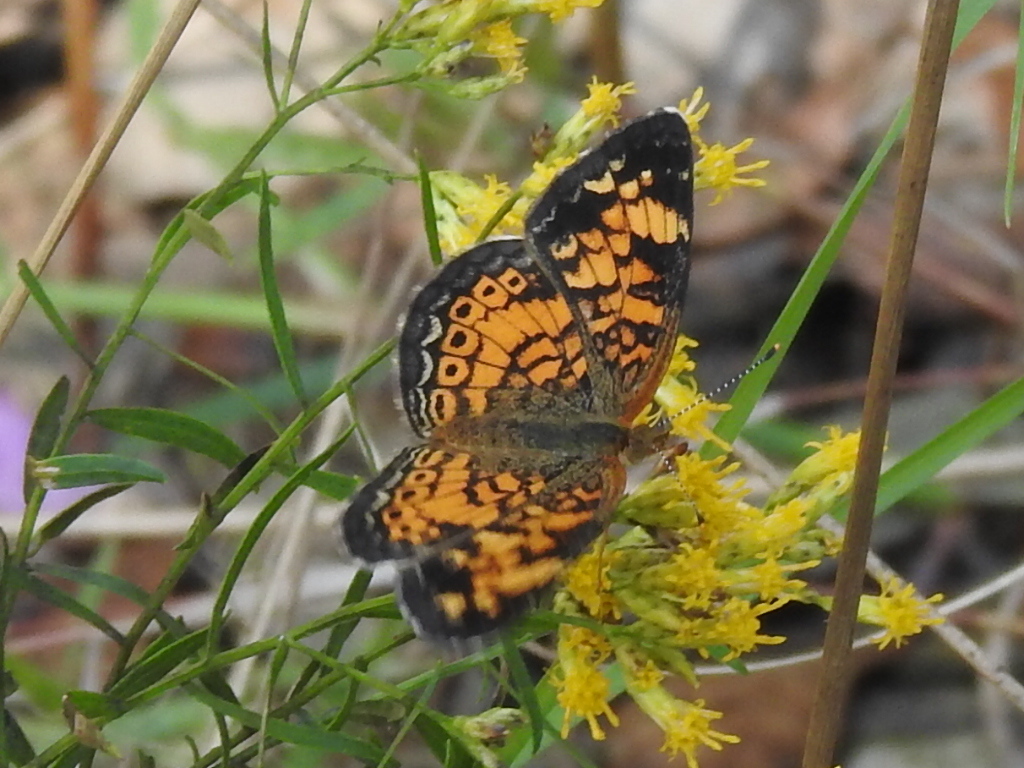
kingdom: Animalia
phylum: Arthropoda
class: Insecta
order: Lepidoptera
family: Nymphalidae
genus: Phyciodes
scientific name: Phyciodes tharos
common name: Pearl crescent
